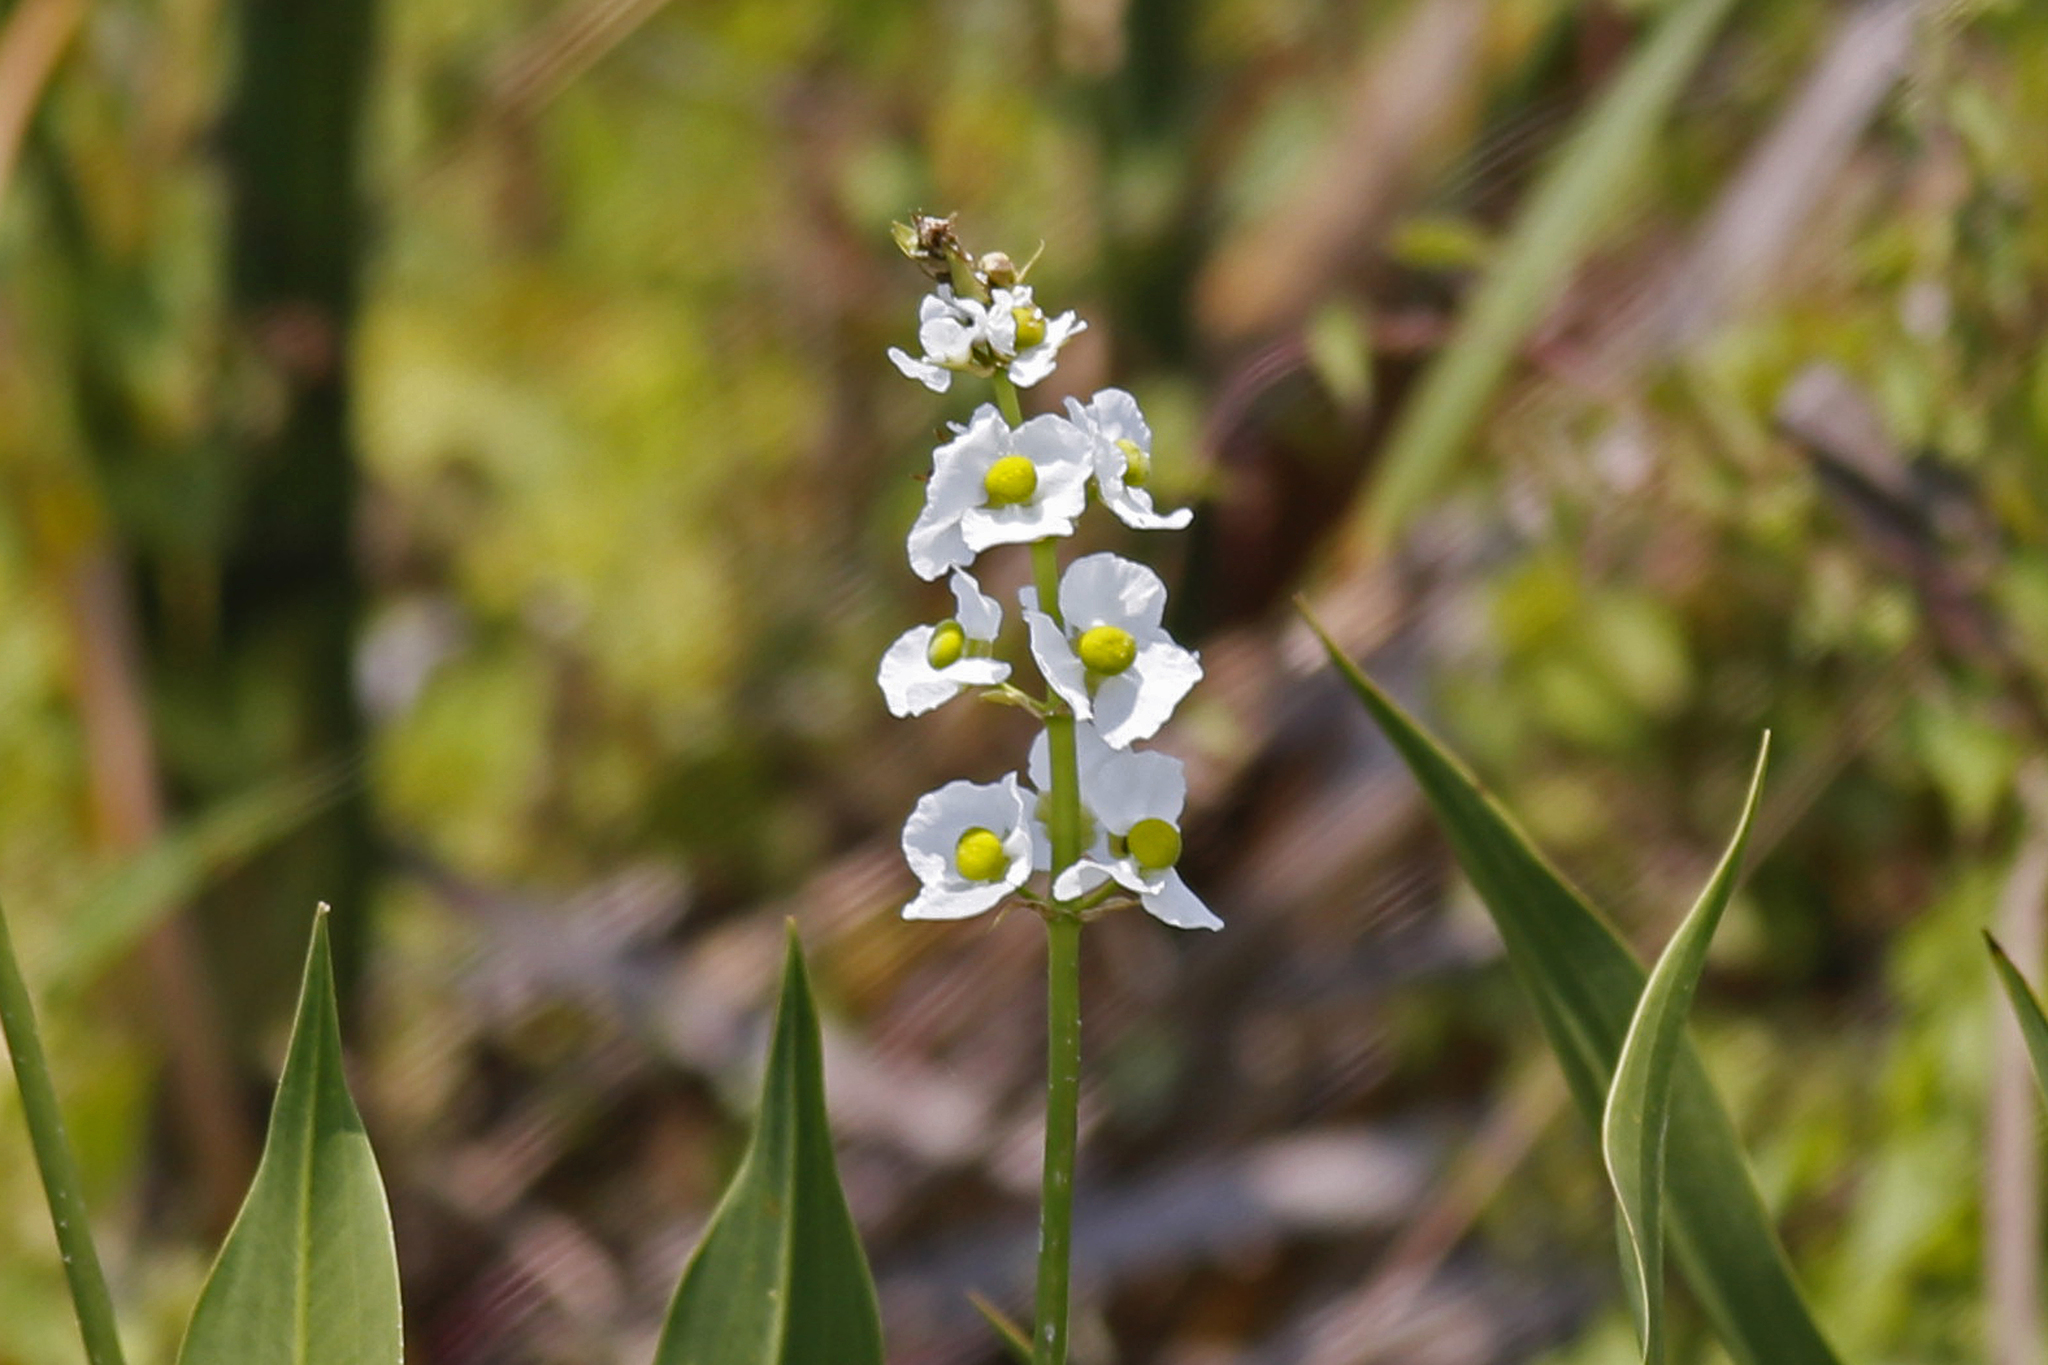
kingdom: Plantae
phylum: Tracheophyta
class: Liliopsida
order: Alismatales
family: Alismataceae
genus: Sagittaria
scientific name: Sagittaria lancifolia
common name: Lance-leaf arrowhead
